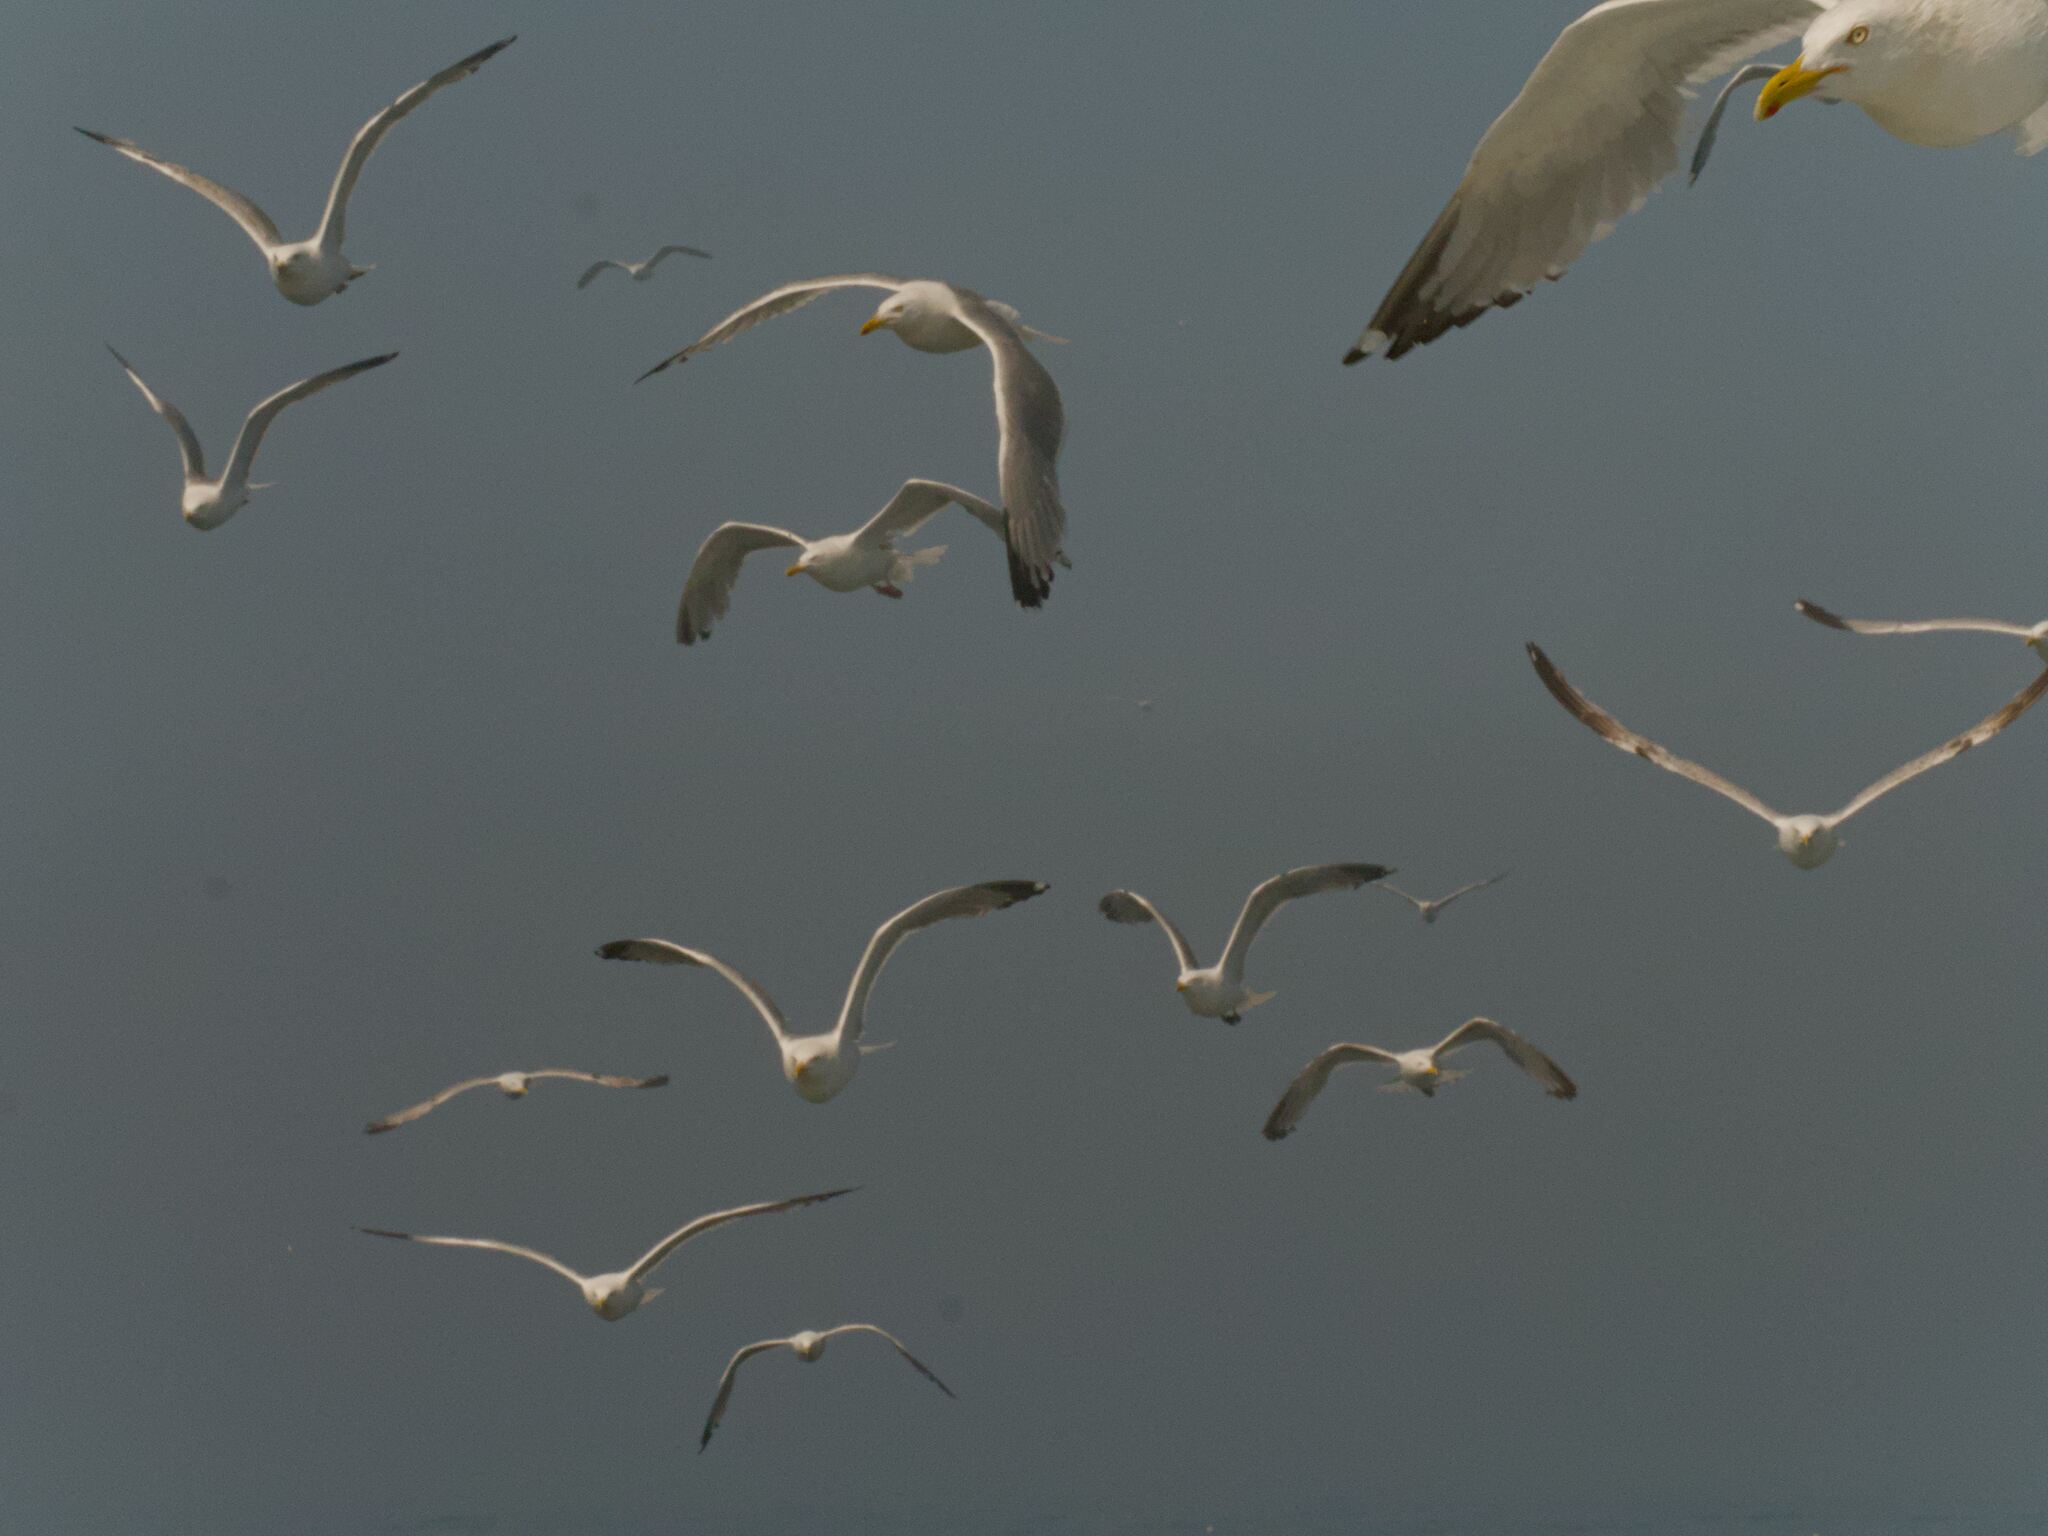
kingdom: Animalia
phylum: Chordata
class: Aves
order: Charadriiformes
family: Laridae
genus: Larus
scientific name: Larus argentatus
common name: Herring gull
